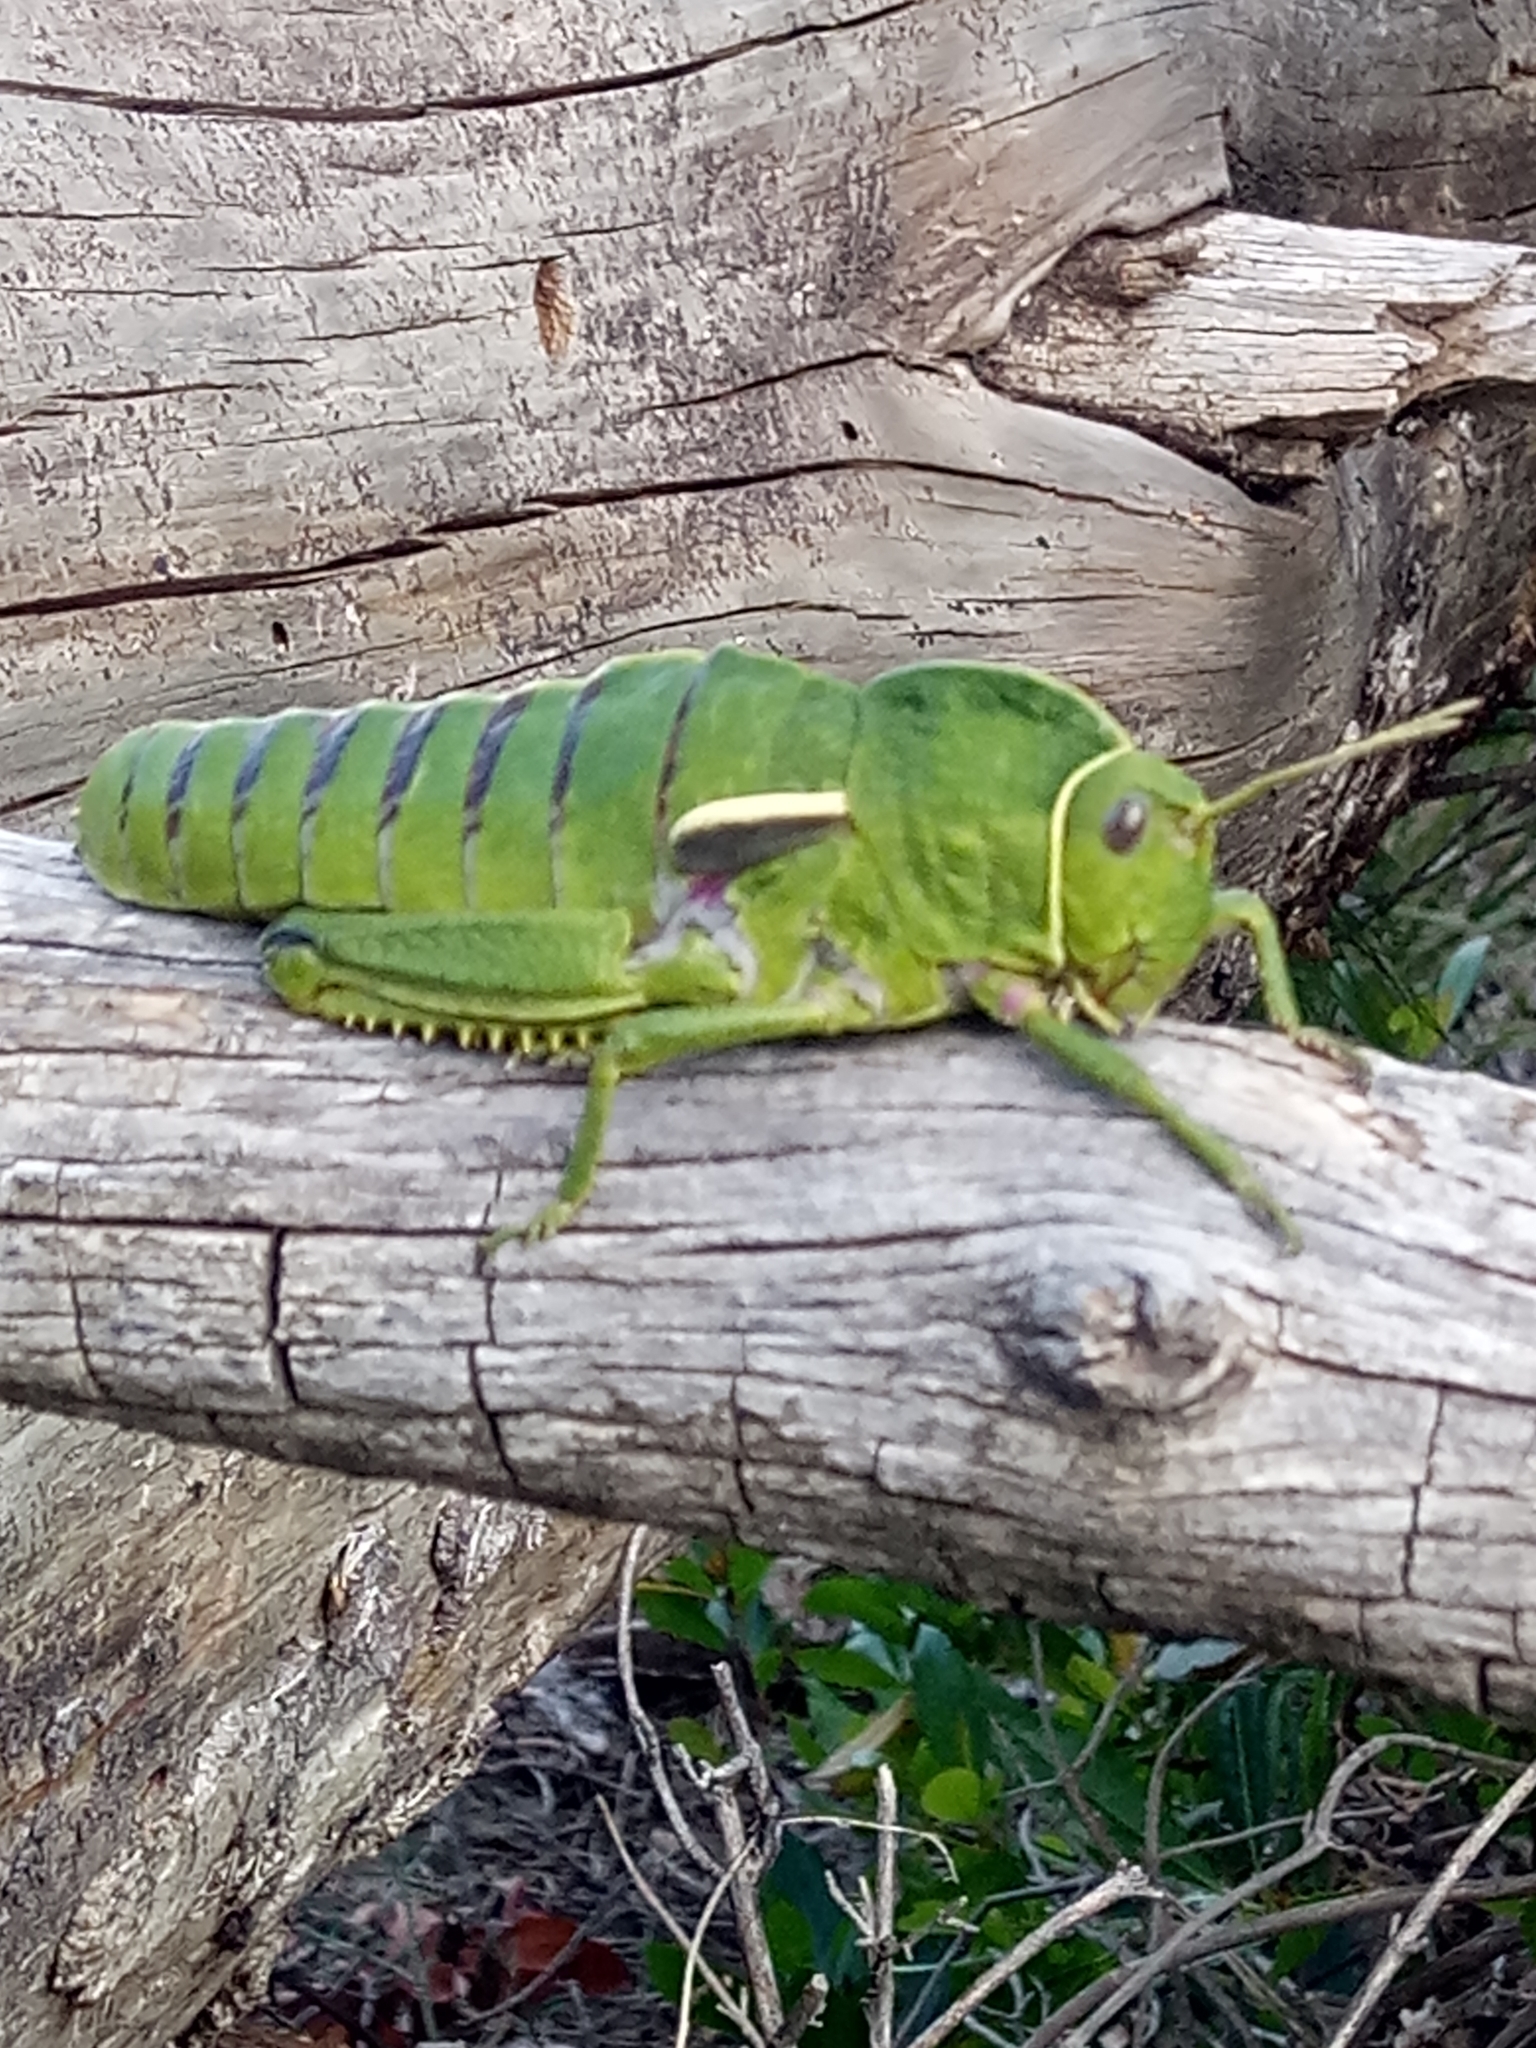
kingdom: Animalia
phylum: Arthropoda
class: Insecta
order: Orthoptera
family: Pamphagidae
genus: Pamphagus
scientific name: Pamphagus milevitanus
